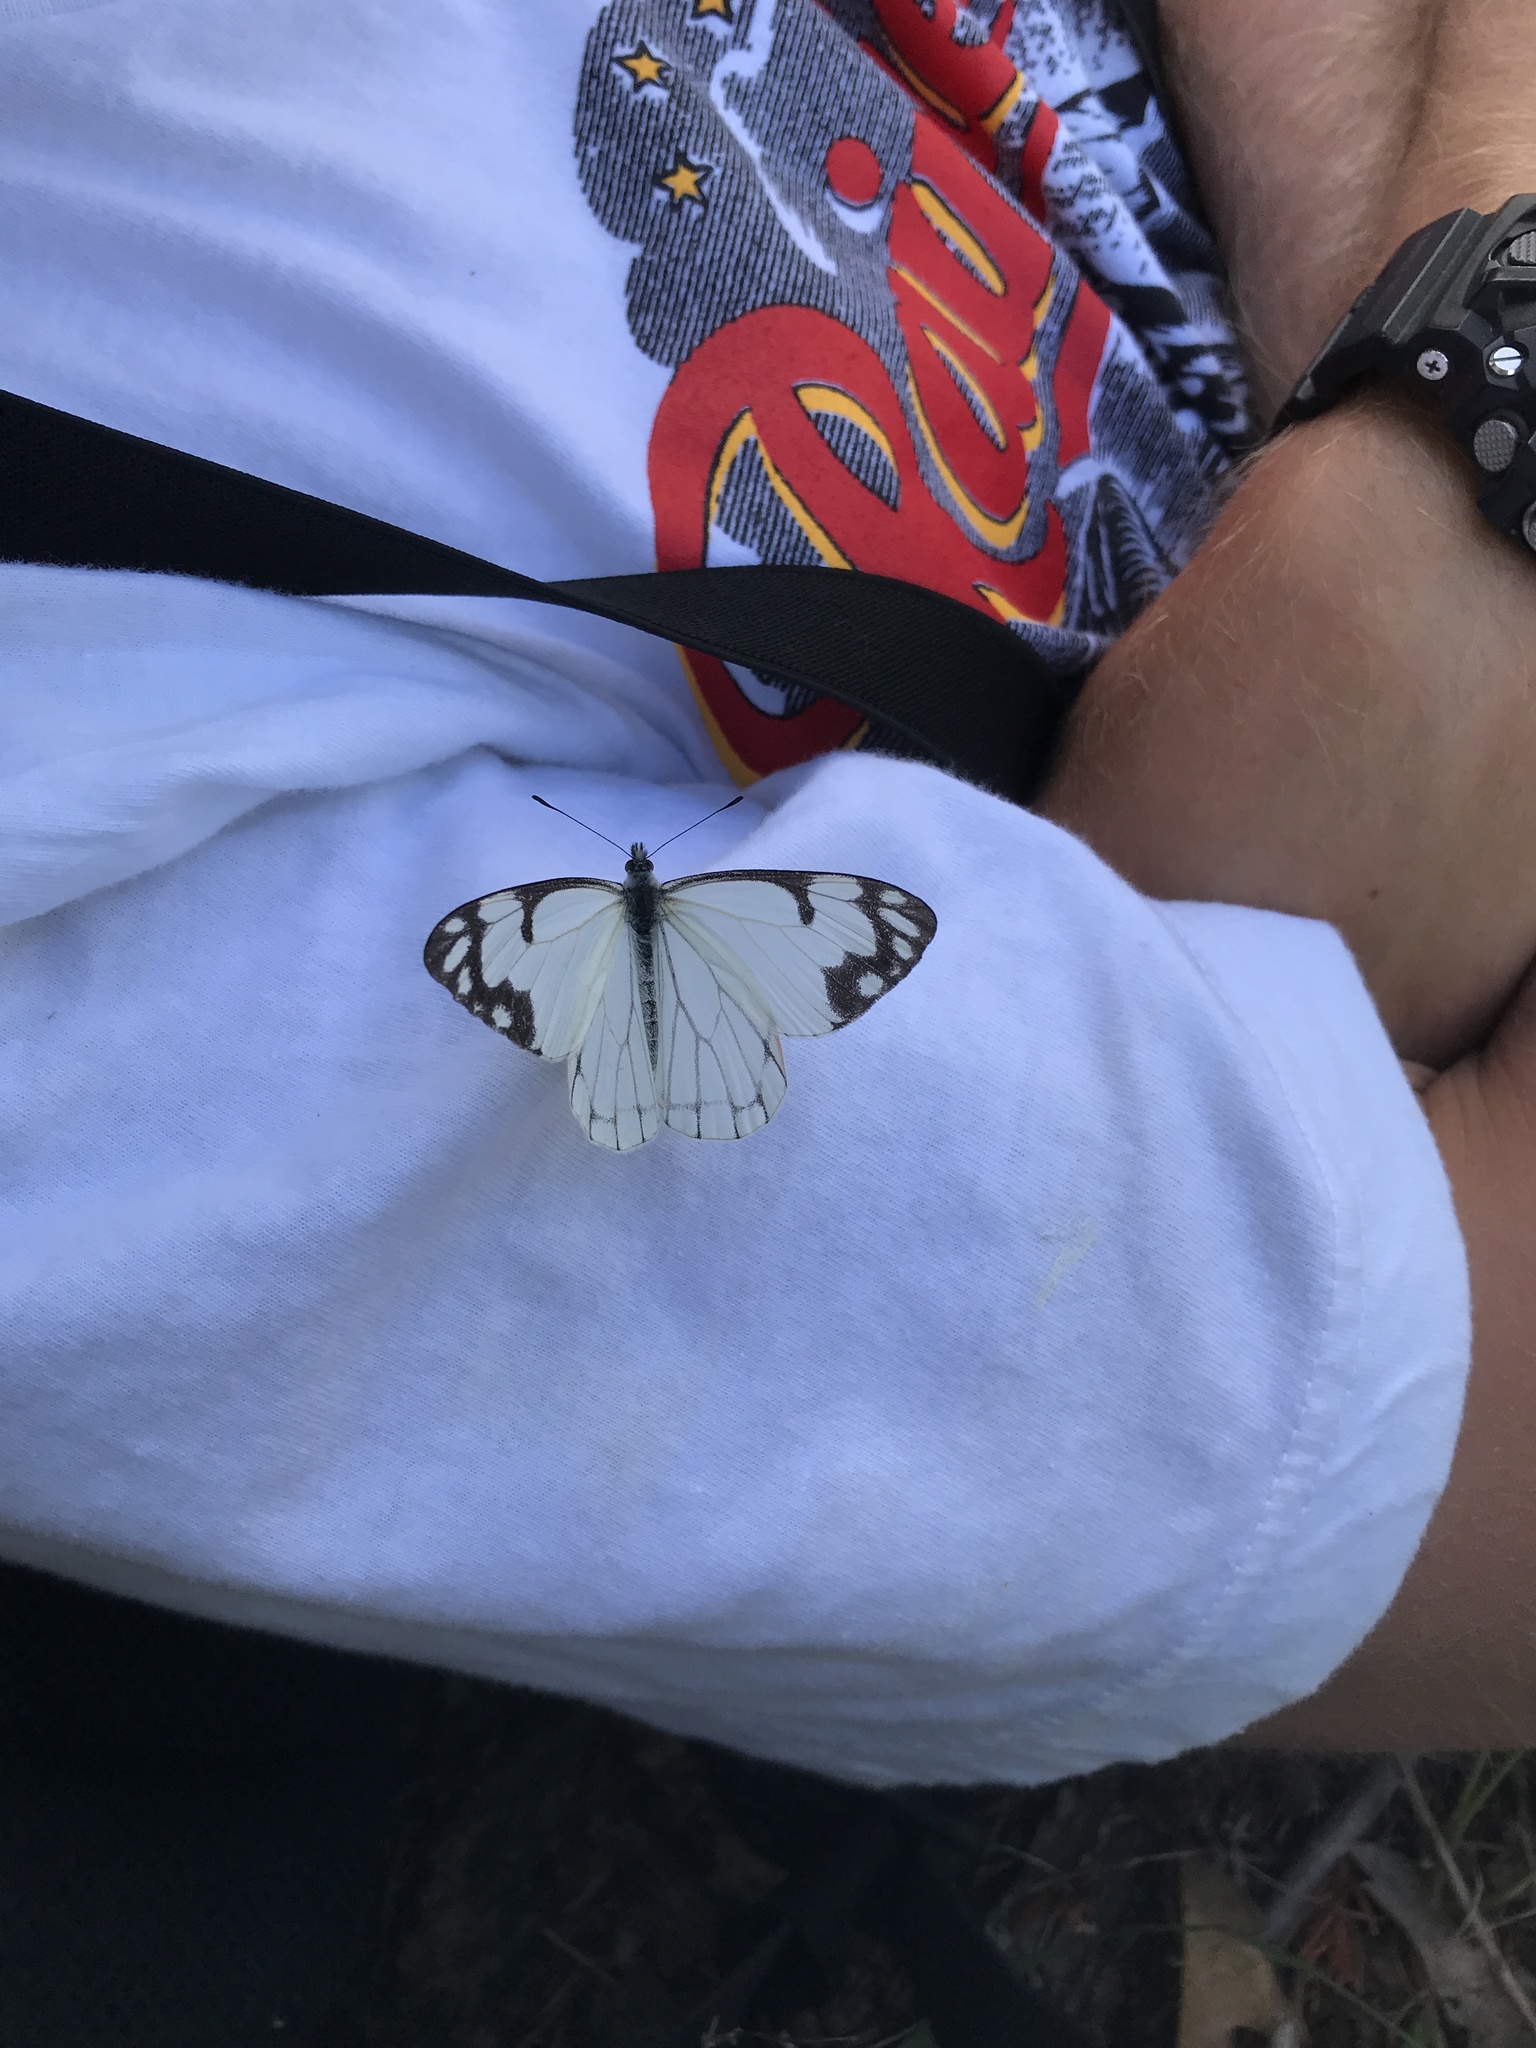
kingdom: Animalia
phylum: Arthropoda
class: Insecta
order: Lepidoptera
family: Pieridae
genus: Neophasia
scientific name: Neophasia menapia
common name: Pine white
